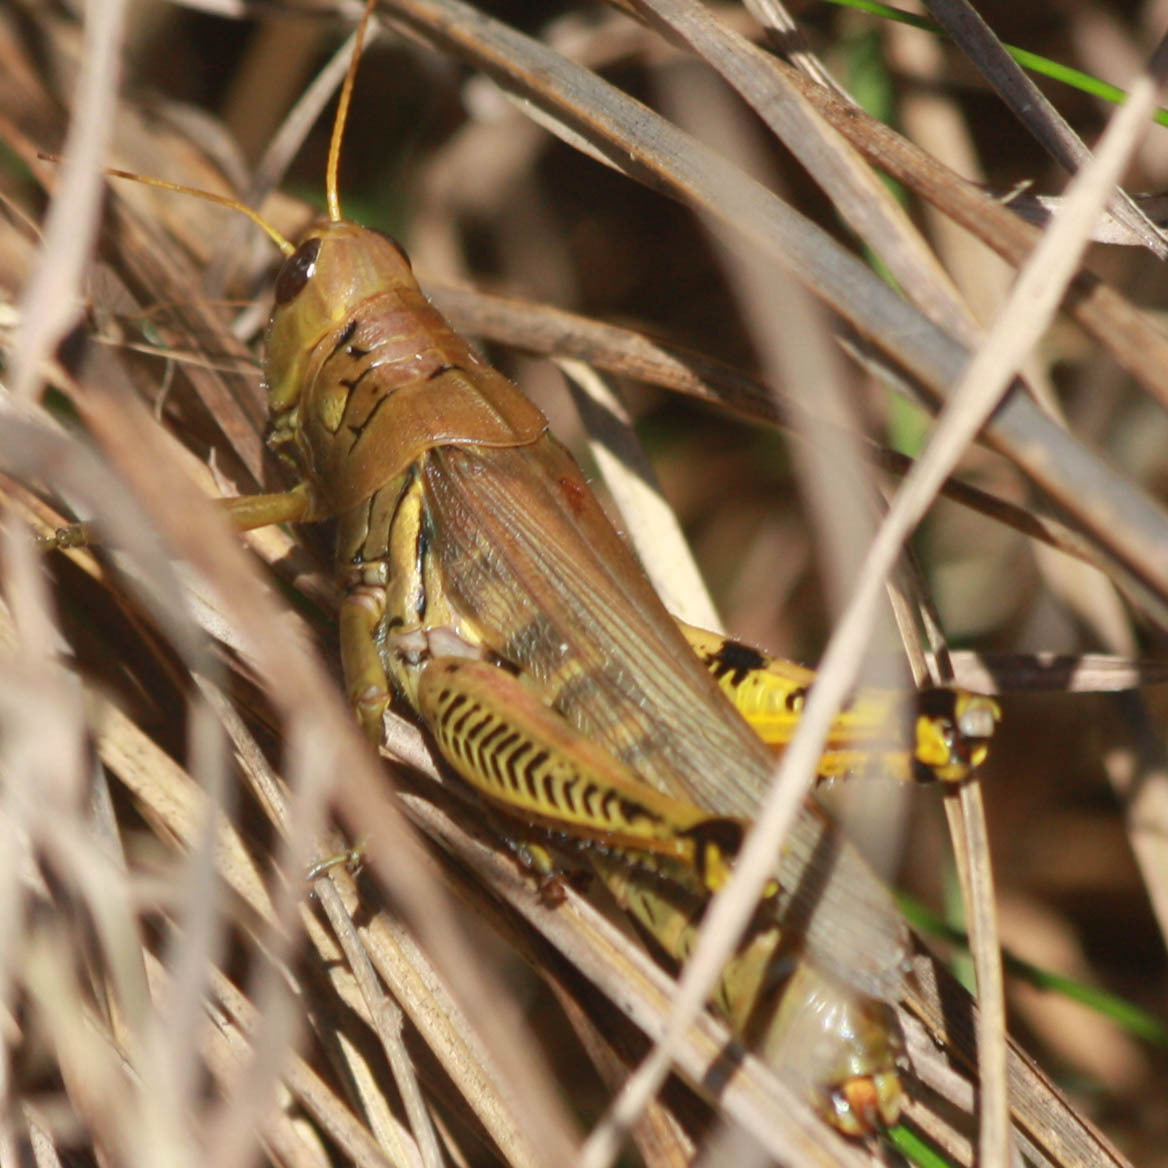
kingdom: Animalia
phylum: Arthropoda
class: Insecta
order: Orthoptera
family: Acrididae
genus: Melanoplus
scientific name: Melanoplus differentialis
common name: Differential grasshopper
